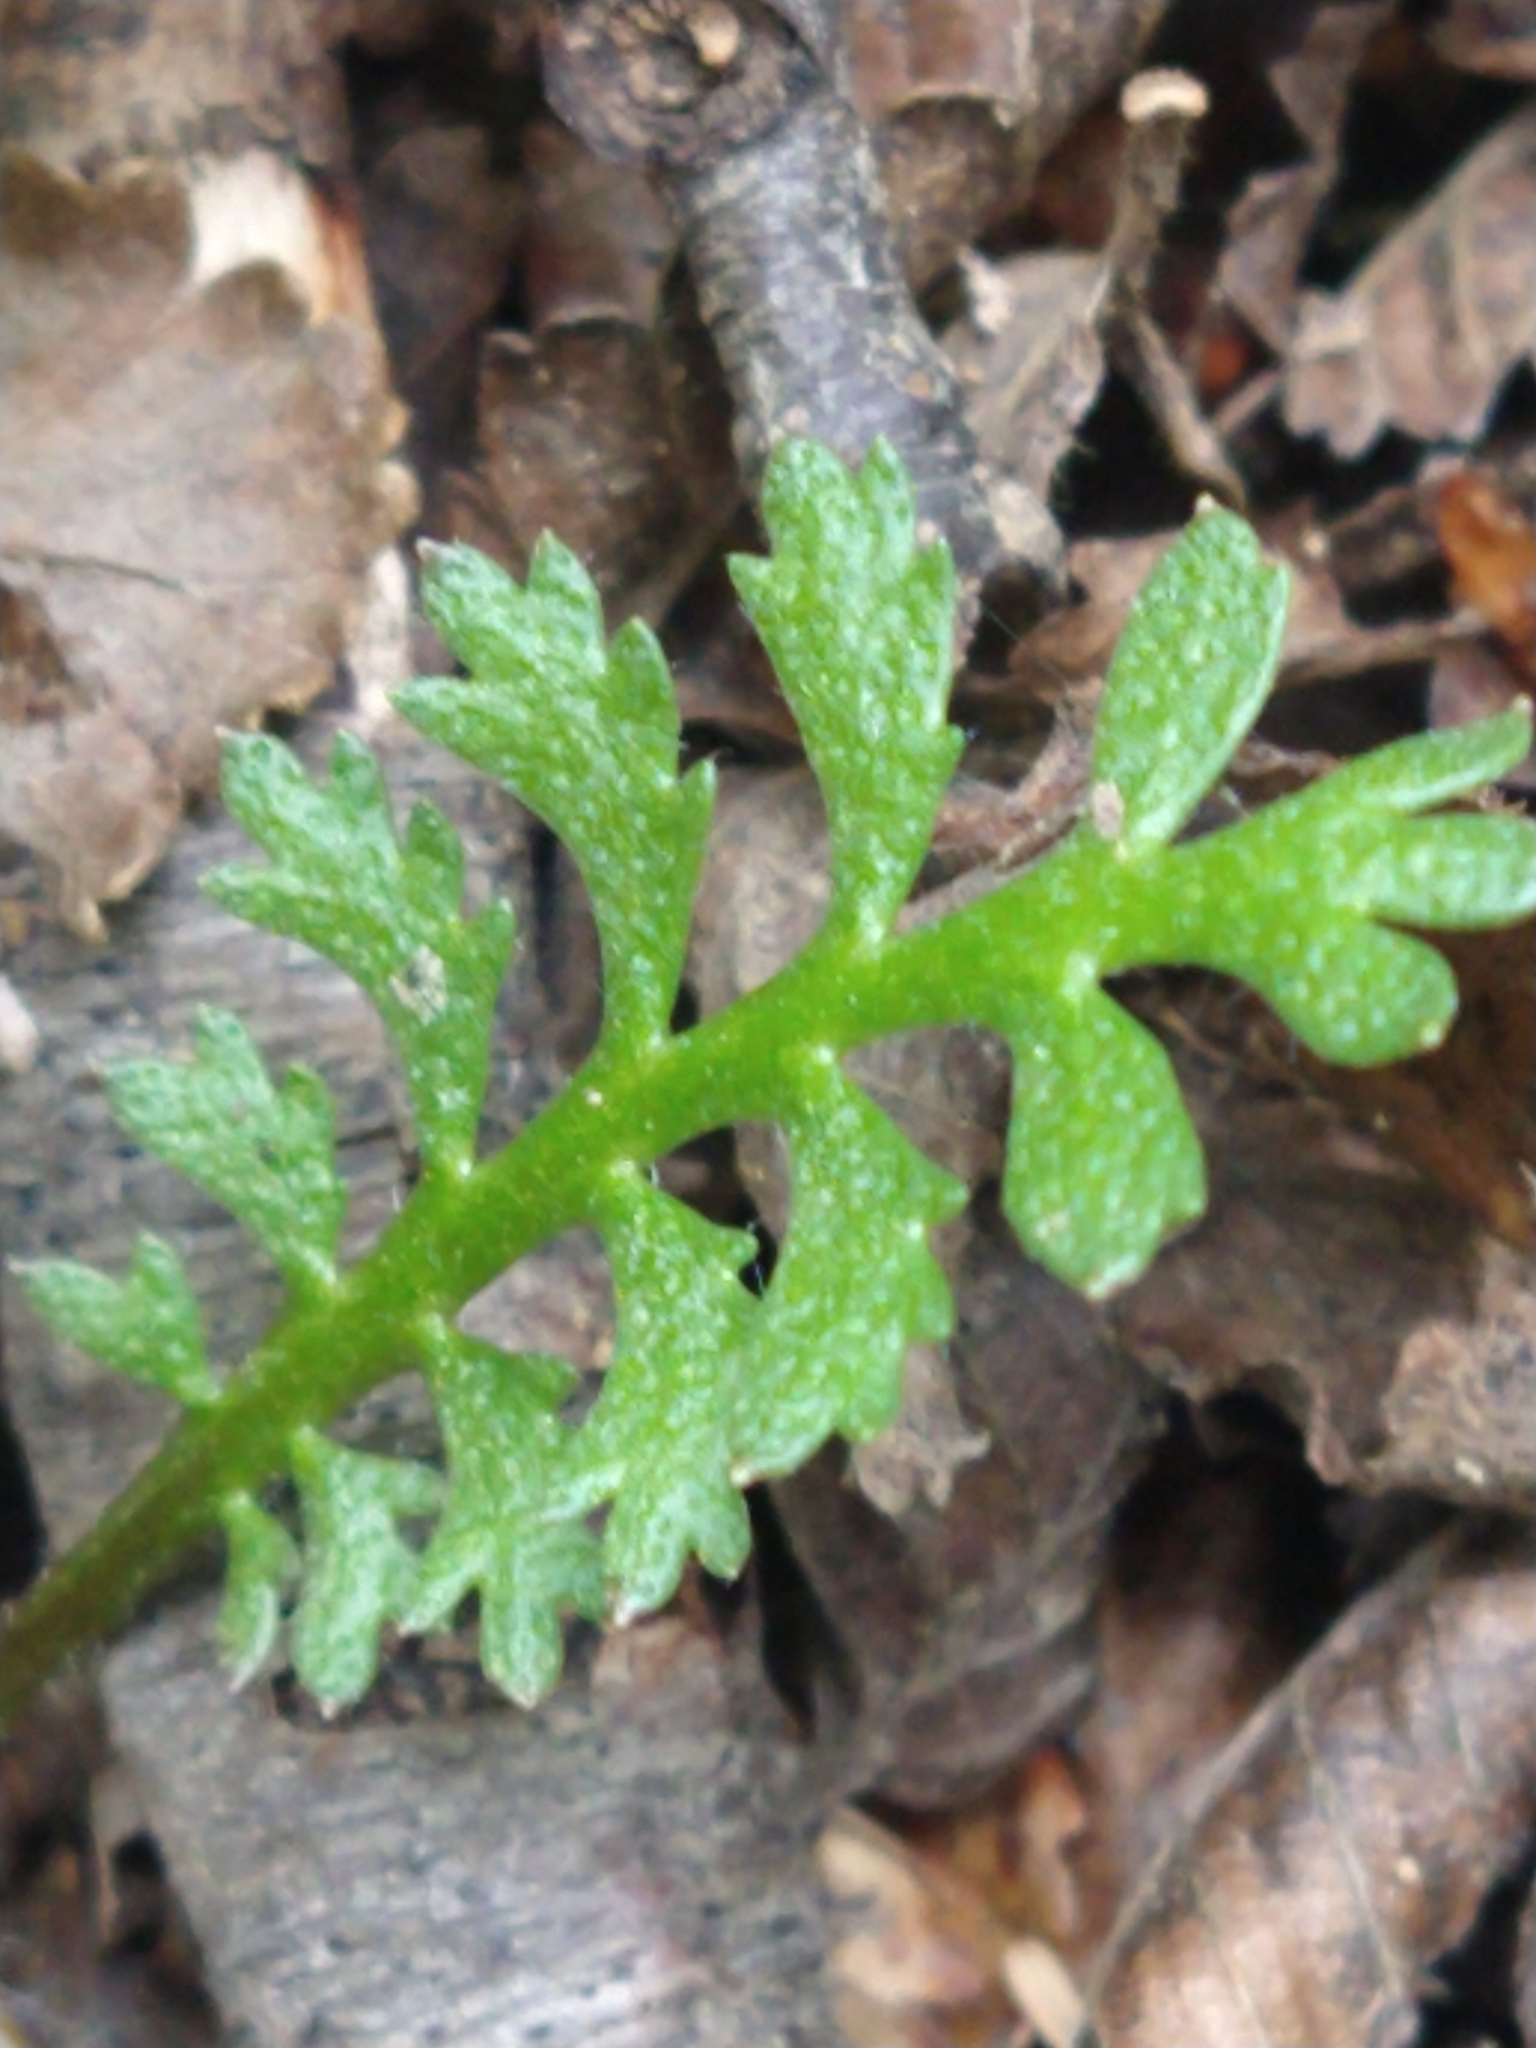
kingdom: Plantae
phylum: Tracheophyta
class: Magnoliopsida
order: Asterales
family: Asteraceae
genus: Leptinella
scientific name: Leptinella scariosa
